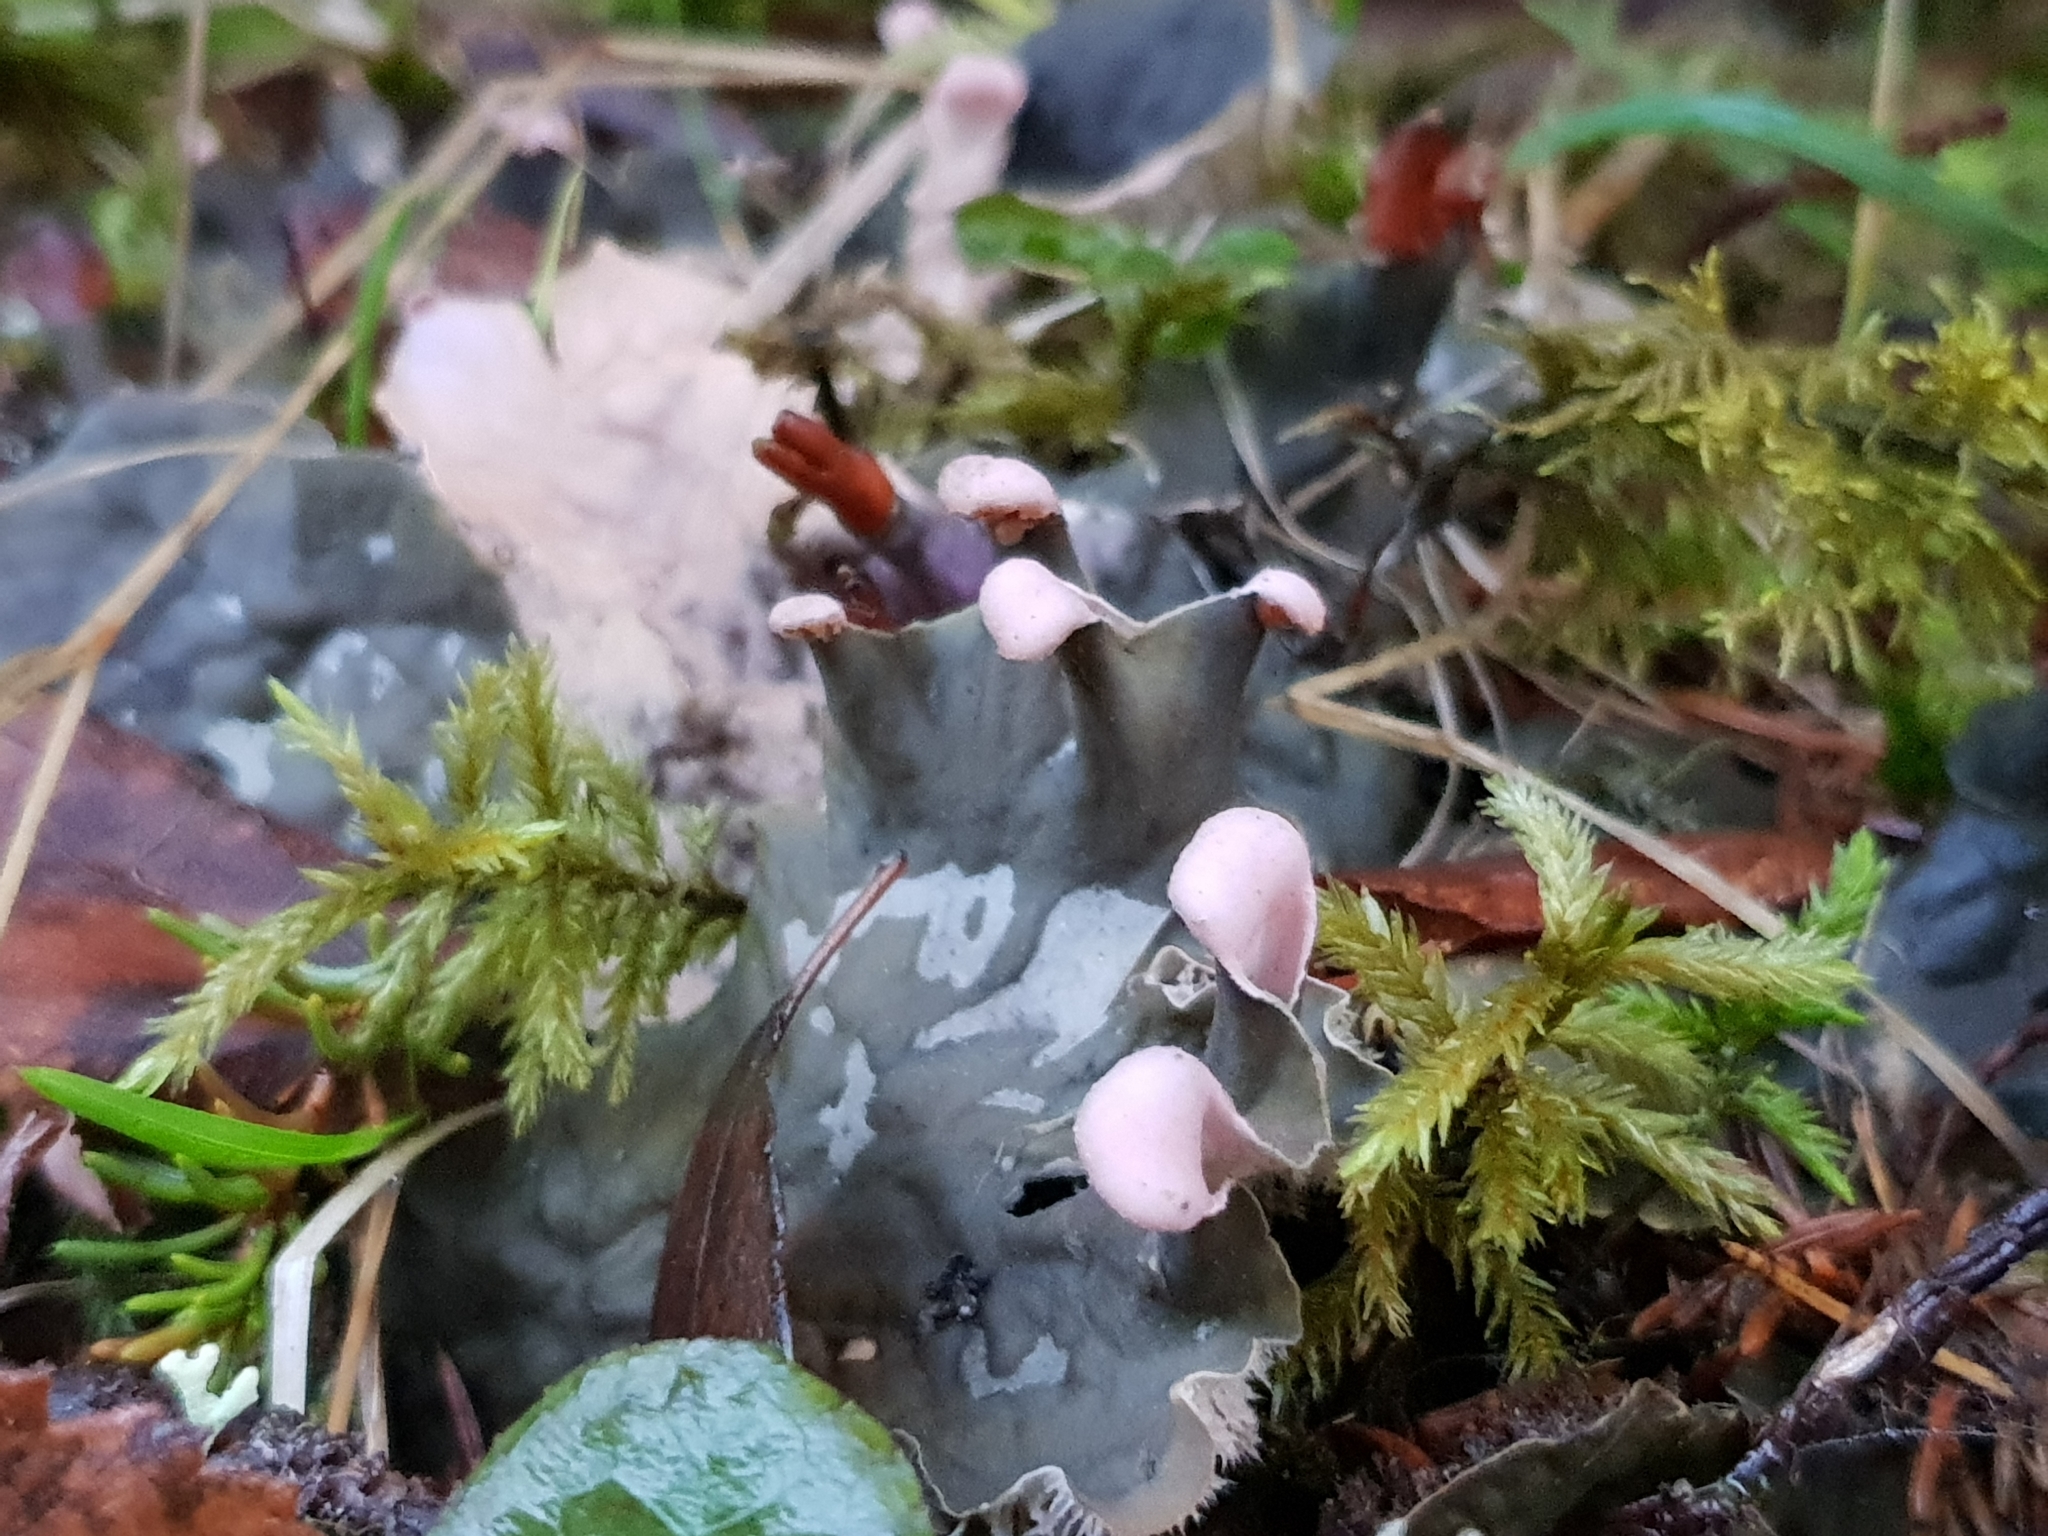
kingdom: Fungi
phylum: Ascomycota
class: Lecanoromycetes
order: Peltigerales
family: Peltigeraceae
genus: Peltigera
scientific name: Peltigera canina
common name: Dog pelt lichen
